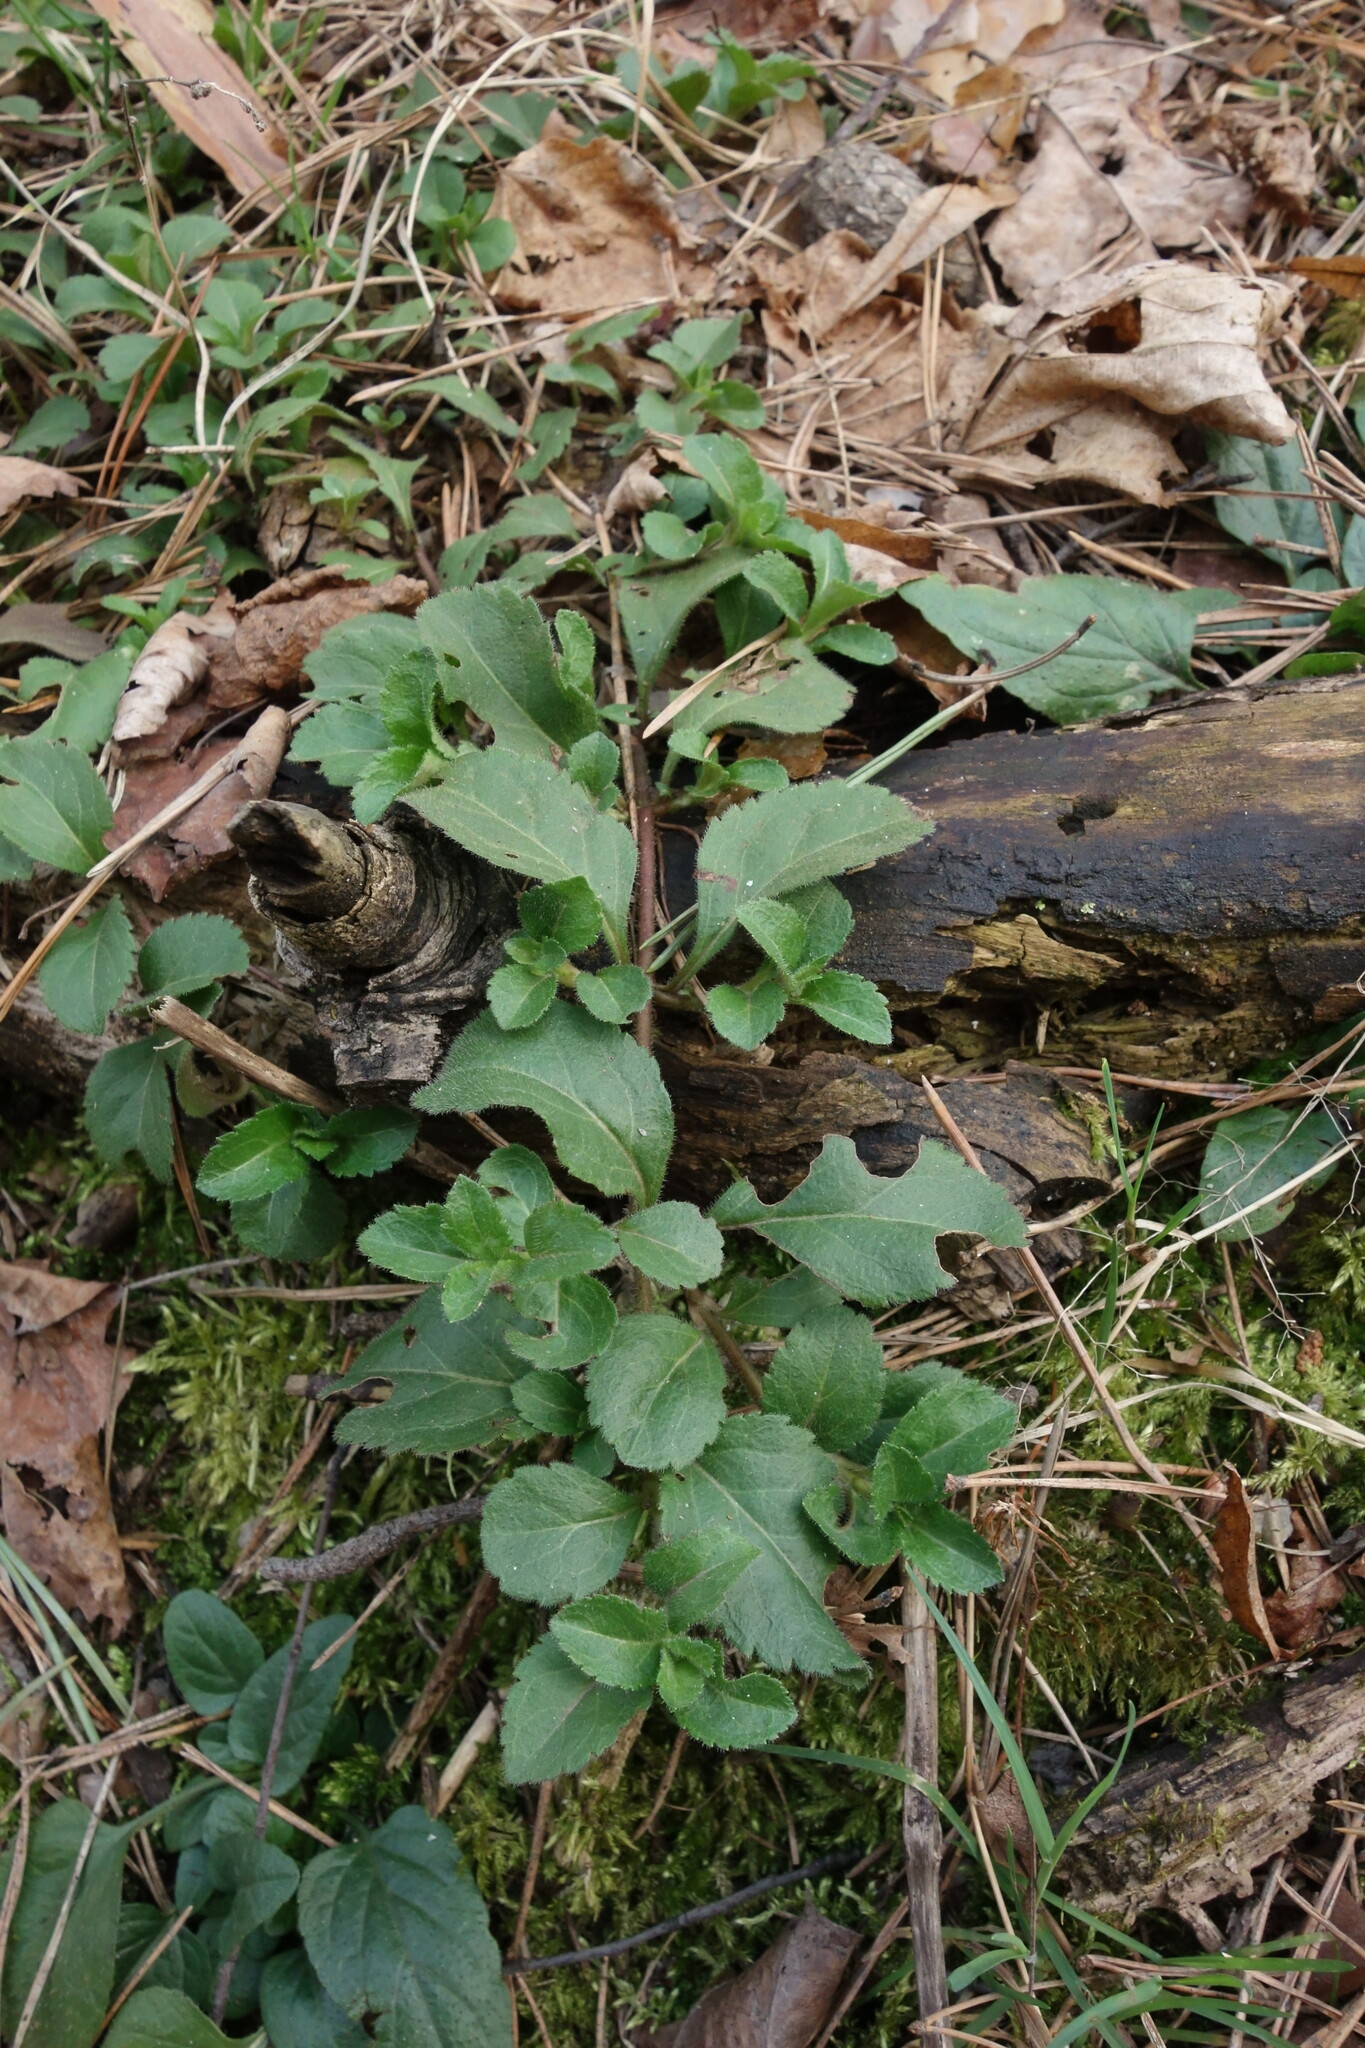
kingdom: Plantae
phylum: Tracheophyta
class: Magnoliopsida
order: Lamiales
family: Plantaginaceae
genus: Veronica
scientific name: Veronica officinalis
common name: Common speedwell
